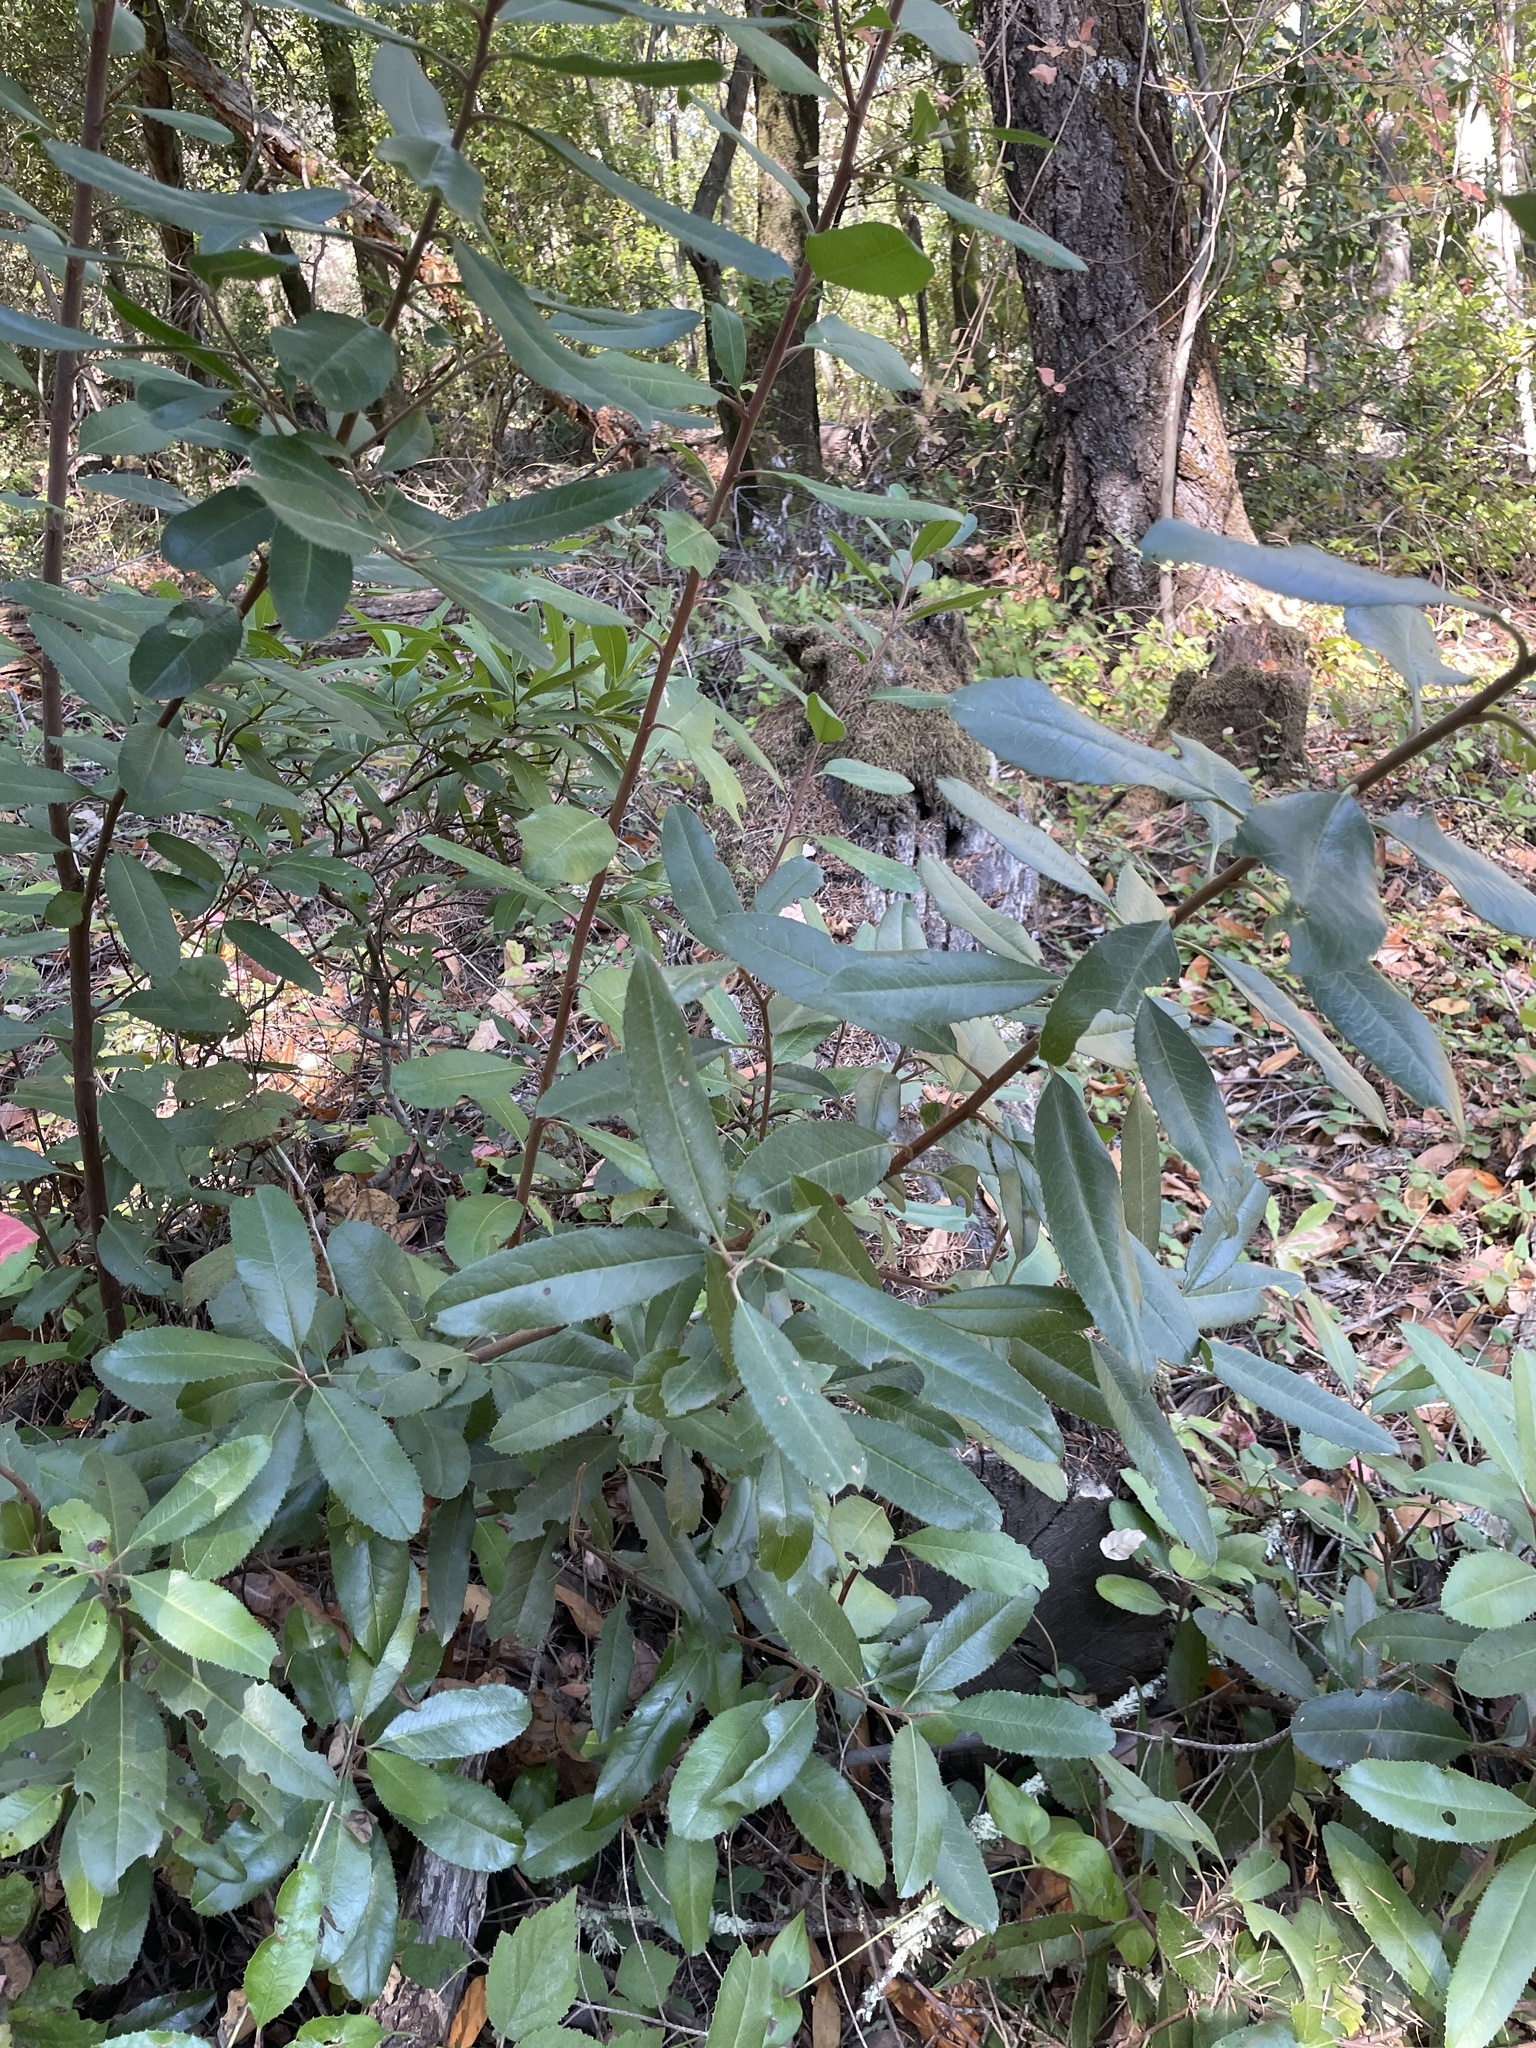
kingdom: Plantae
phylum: Tracheophyta
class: Magnoliopsida
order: Rosales
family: Rosaceae
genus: Heteromeles
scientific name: Heteromeles arbutifolia
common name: California-holly
